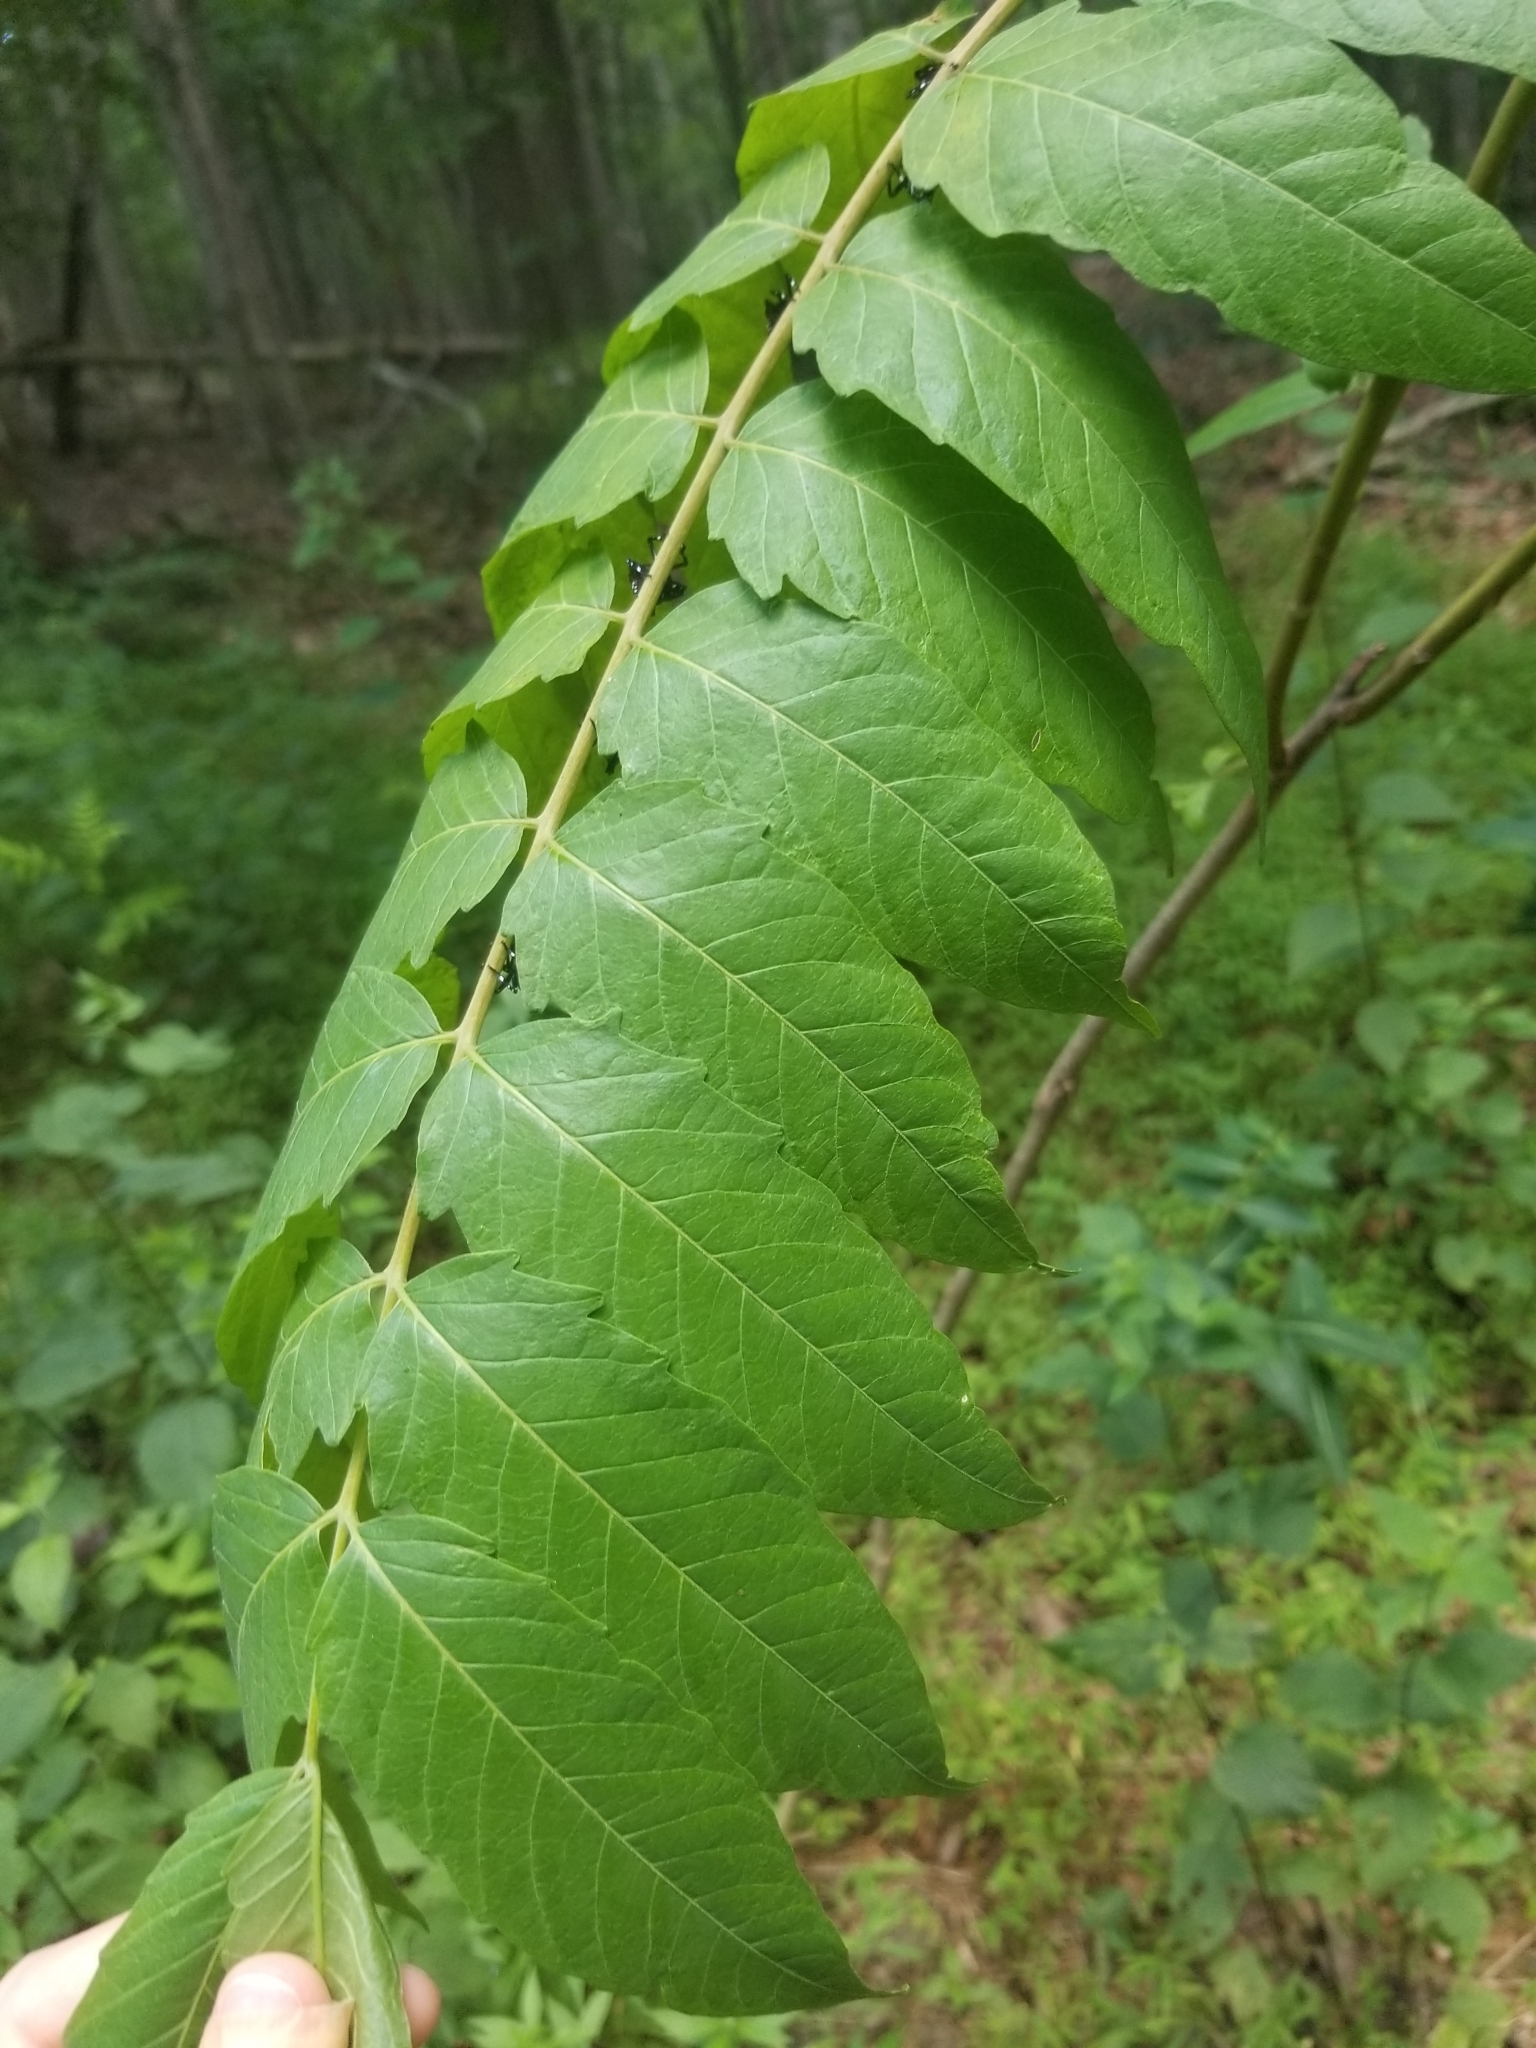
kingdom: Plantae
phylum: Tracheophyta
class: Magnoliopsida
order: Sapindales
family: Simaroubaceae
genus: Ailanthus
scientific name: Ailanthus altissima
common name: Tree-of-heaven
